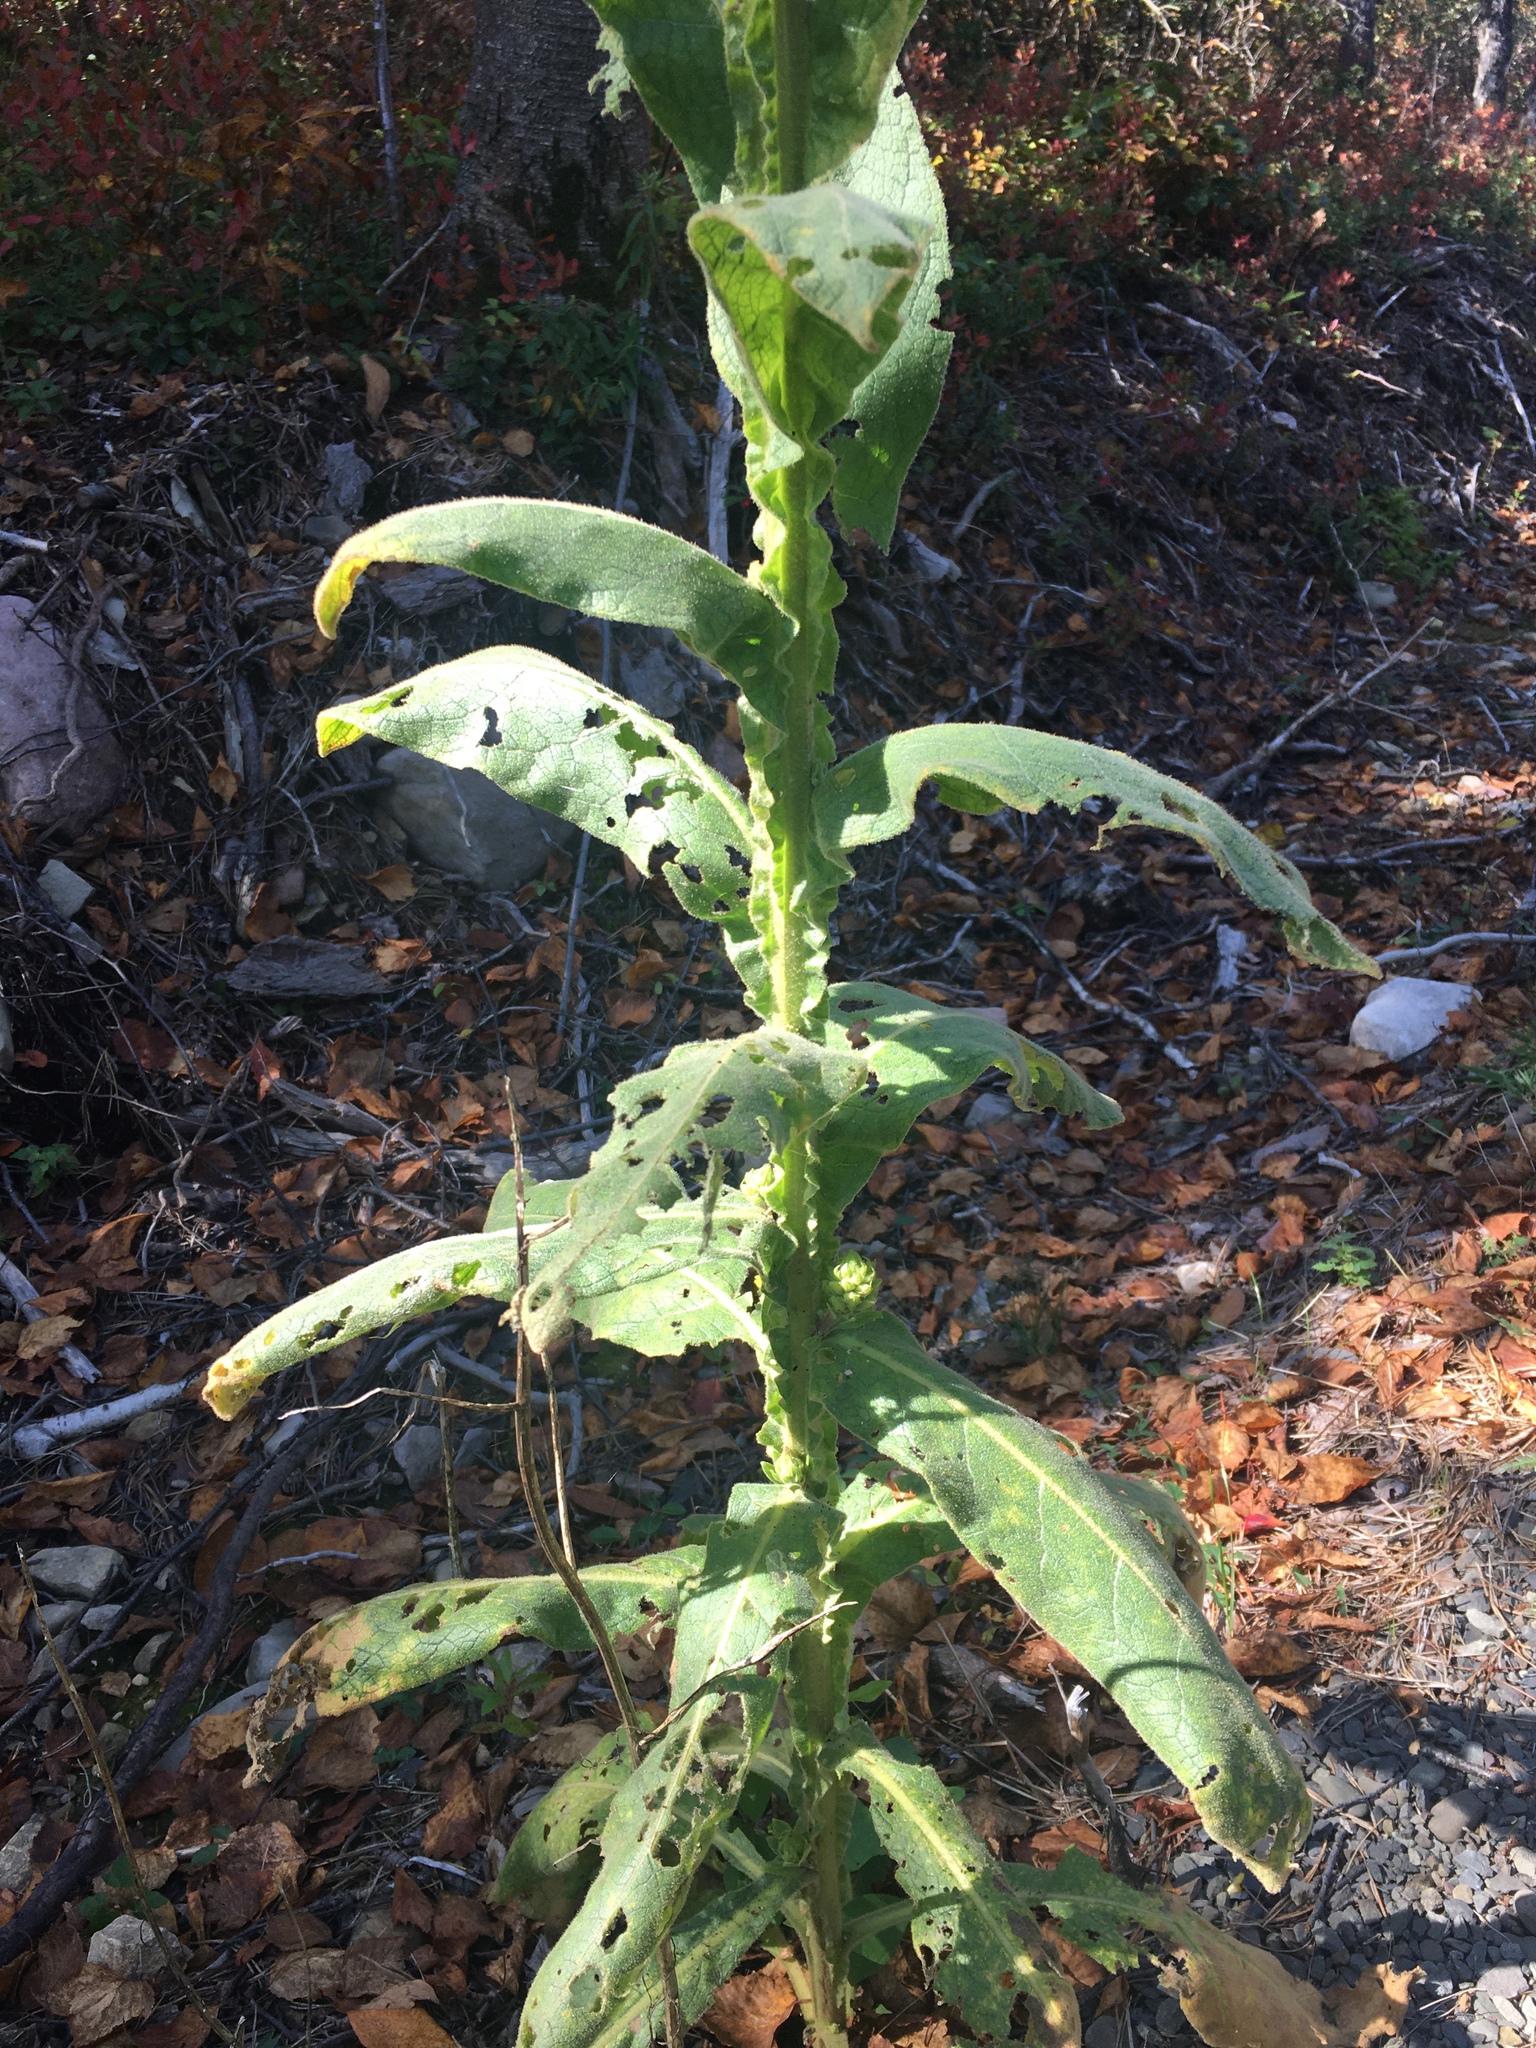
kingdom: Plantae
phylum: Tracheophyta
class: Magnoliopsida
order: Lamiales
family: Scrophulariaceae
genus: Verbascum
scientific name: Verbascum thapsus
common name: Common mullein
